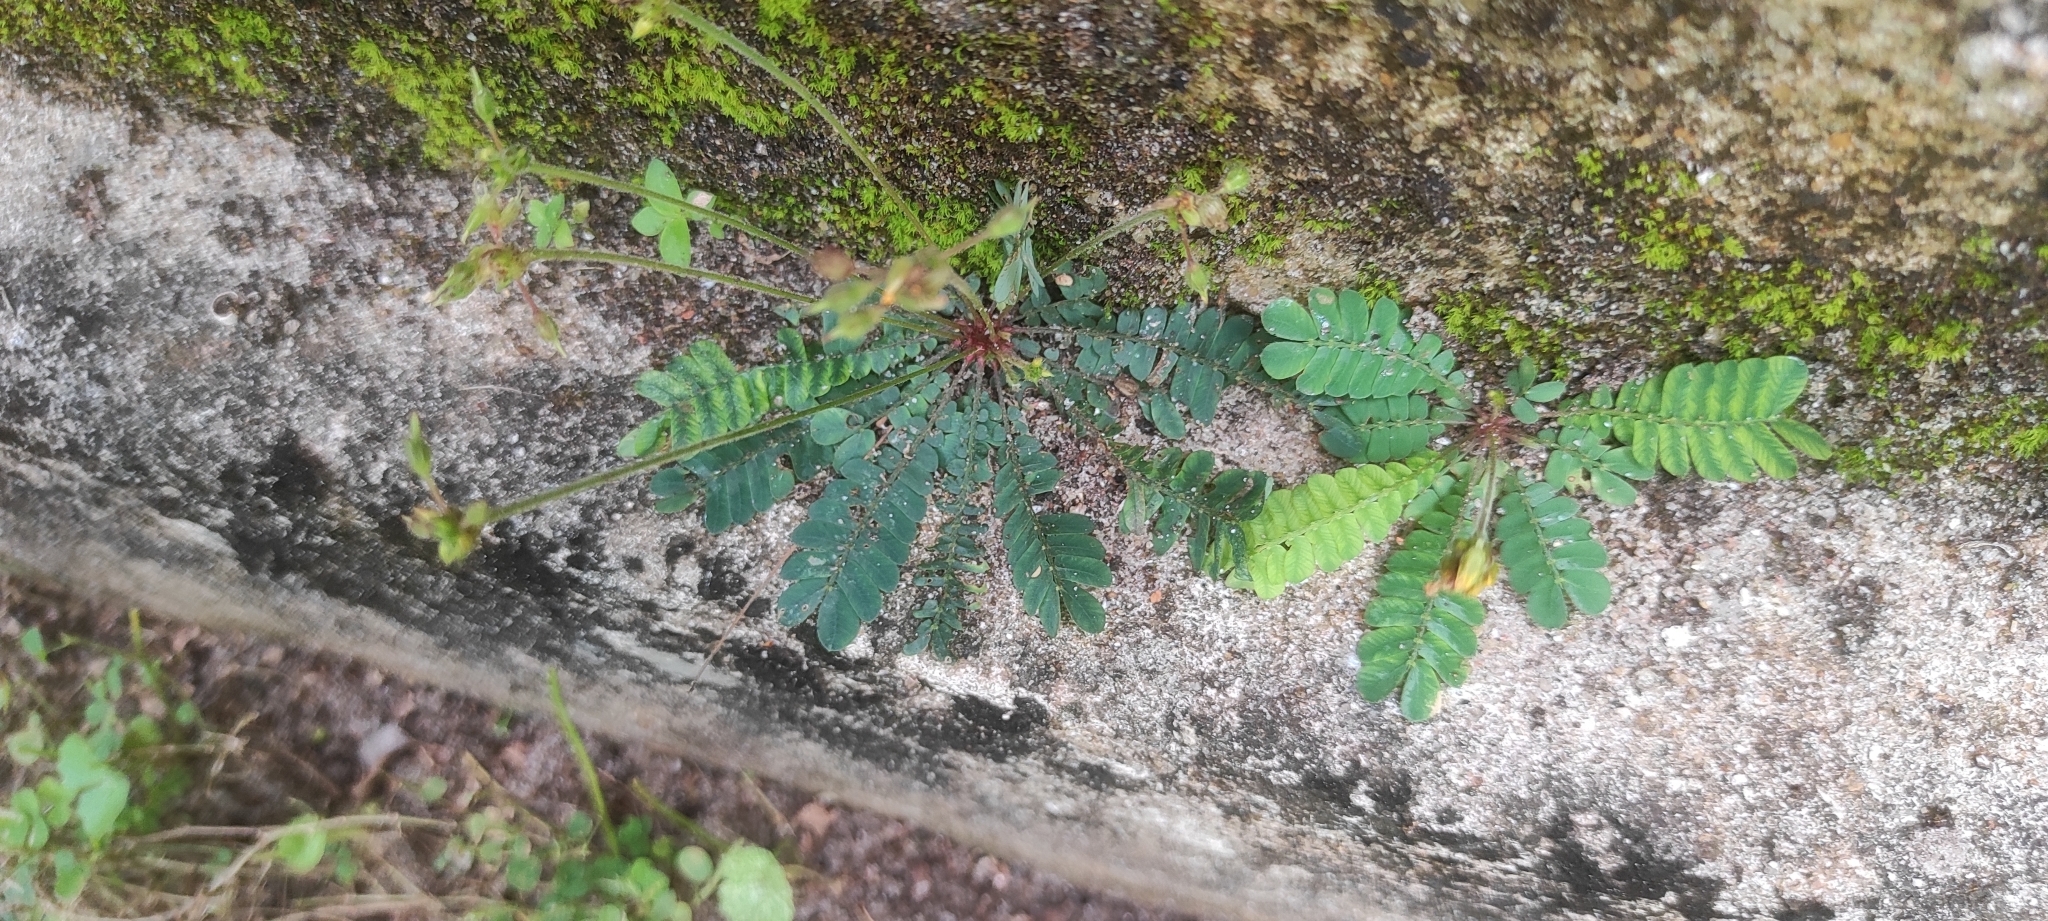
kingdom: Plantae
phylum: Tracheophyta
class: Magnoliopsida
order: Oxalidales
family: Oxalidaceae
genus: Biophytum
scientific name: Biophytum sensitivum
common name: Lifeplant
